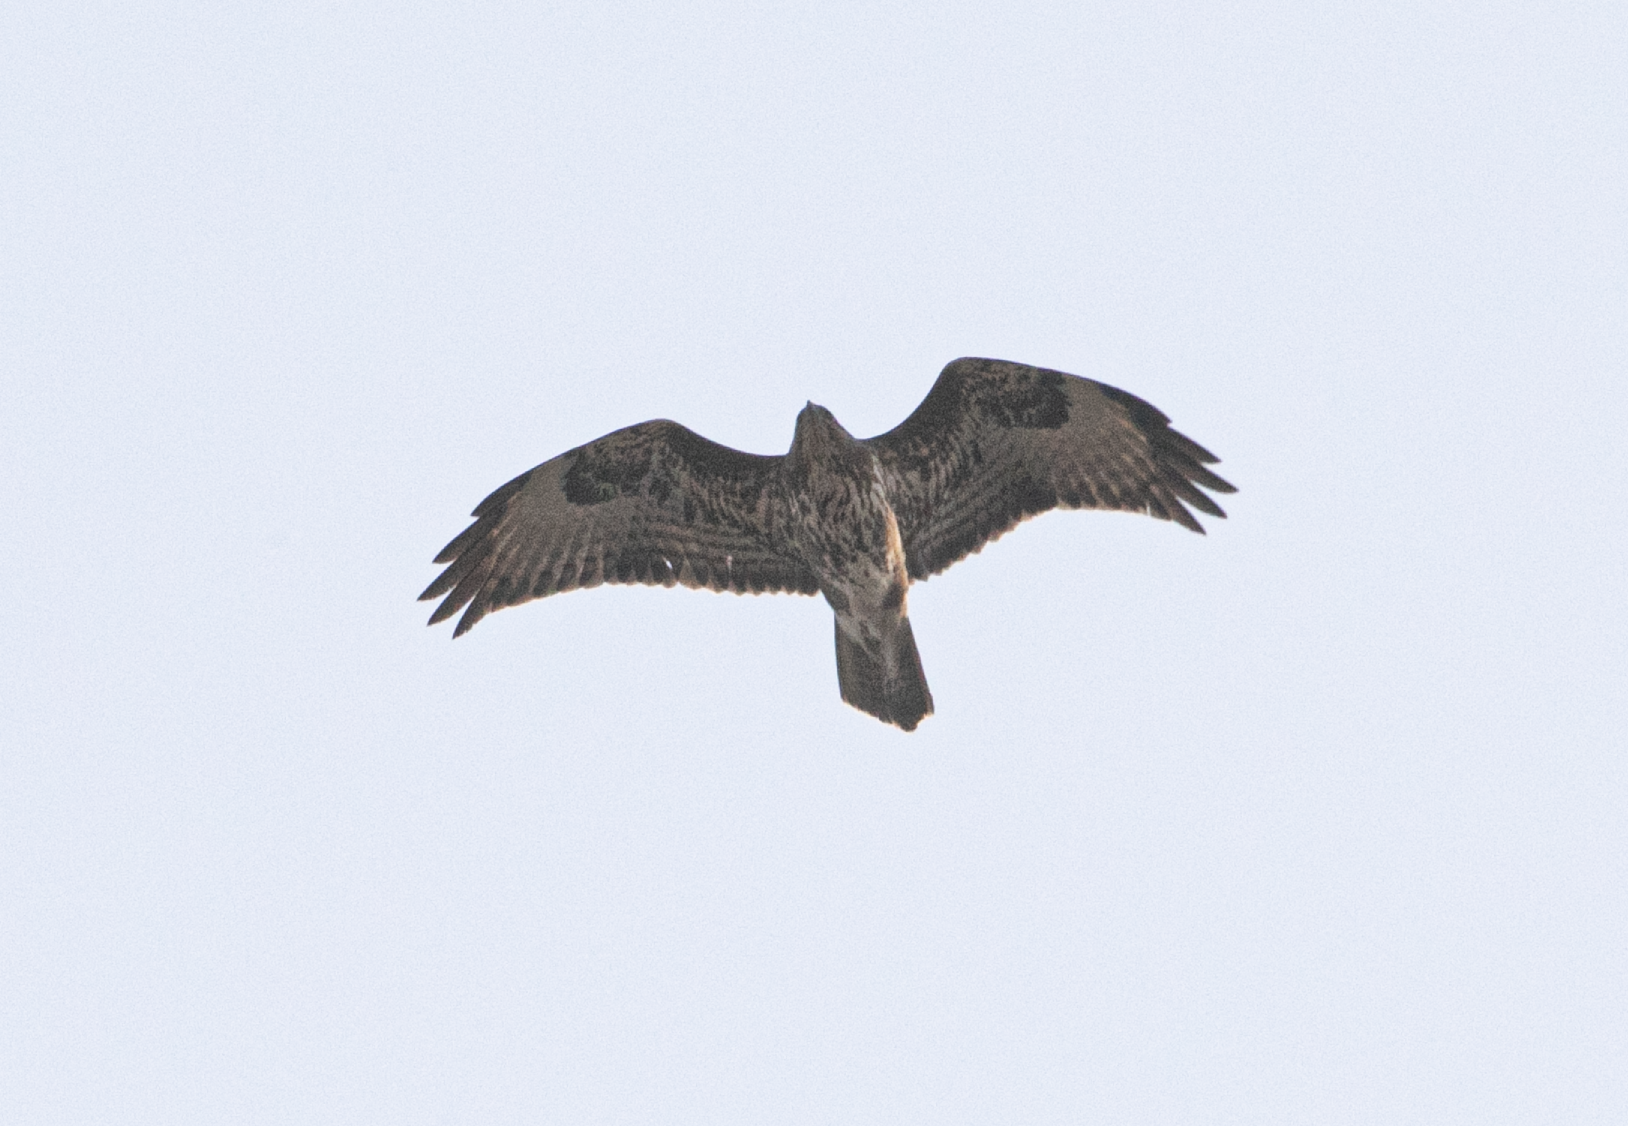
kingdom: Animalia
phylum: Chordata
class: Aves
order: Accipitriformes
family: Accipitridae
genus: Buteo
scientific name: Buteo buteo
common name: Common buzzard
